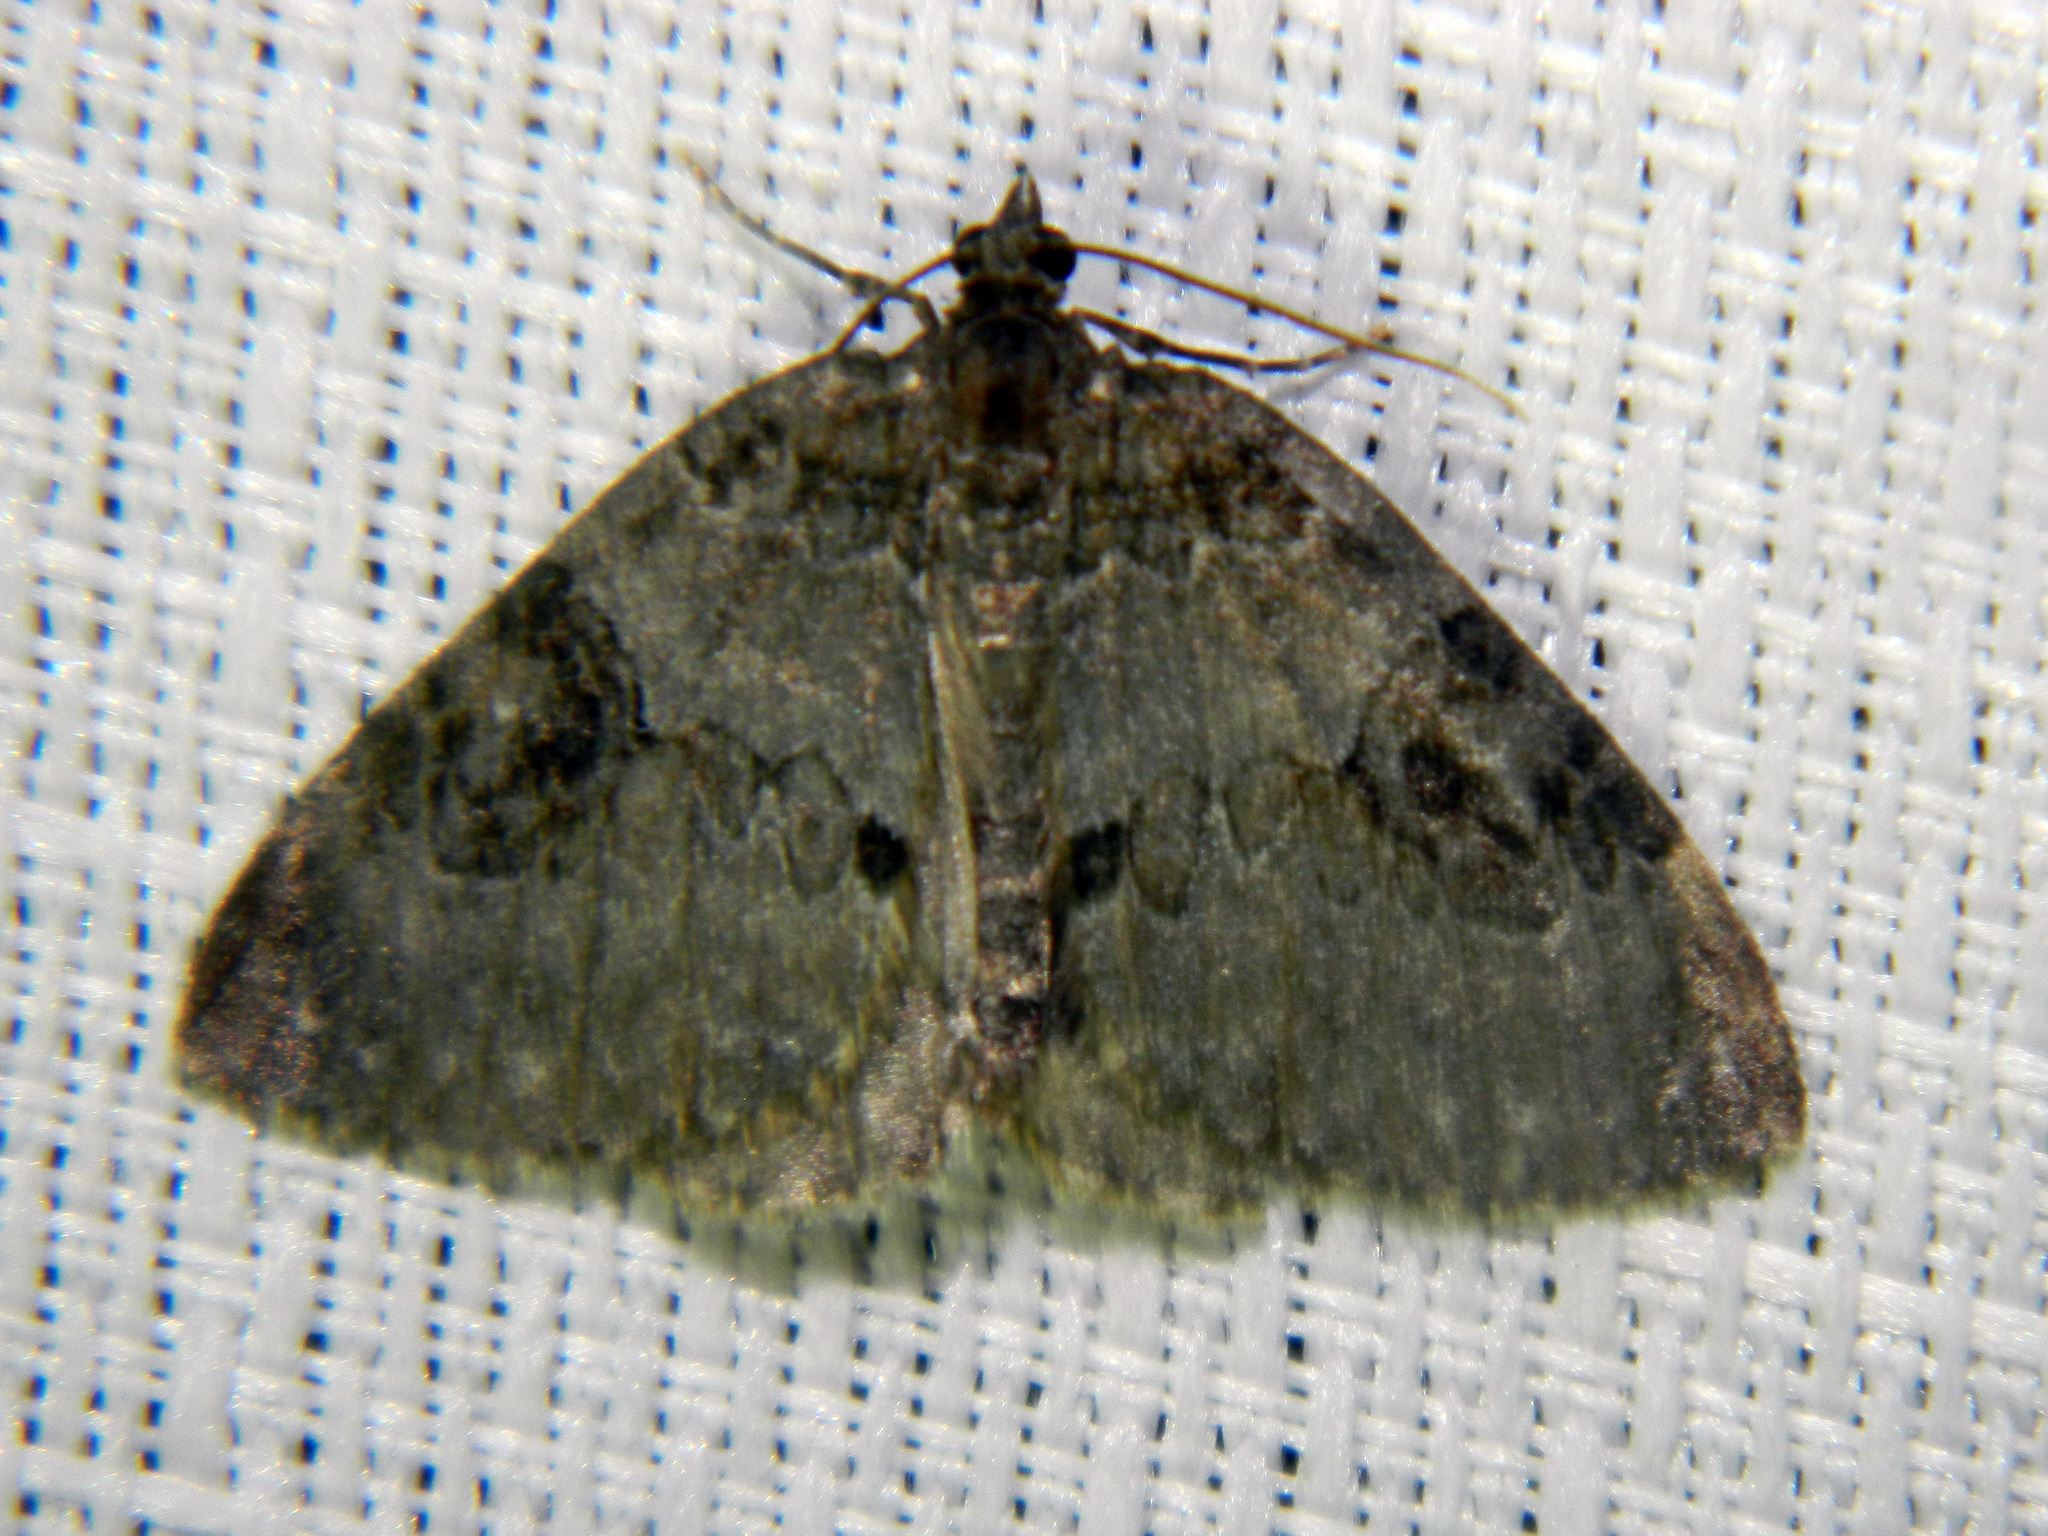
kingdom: Animalia
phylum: Arthropoda
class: Insecta
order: Lepidoptera
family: Geometridae
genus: Plemyria
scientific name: Plemyria georgii
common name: George's carpet moth
